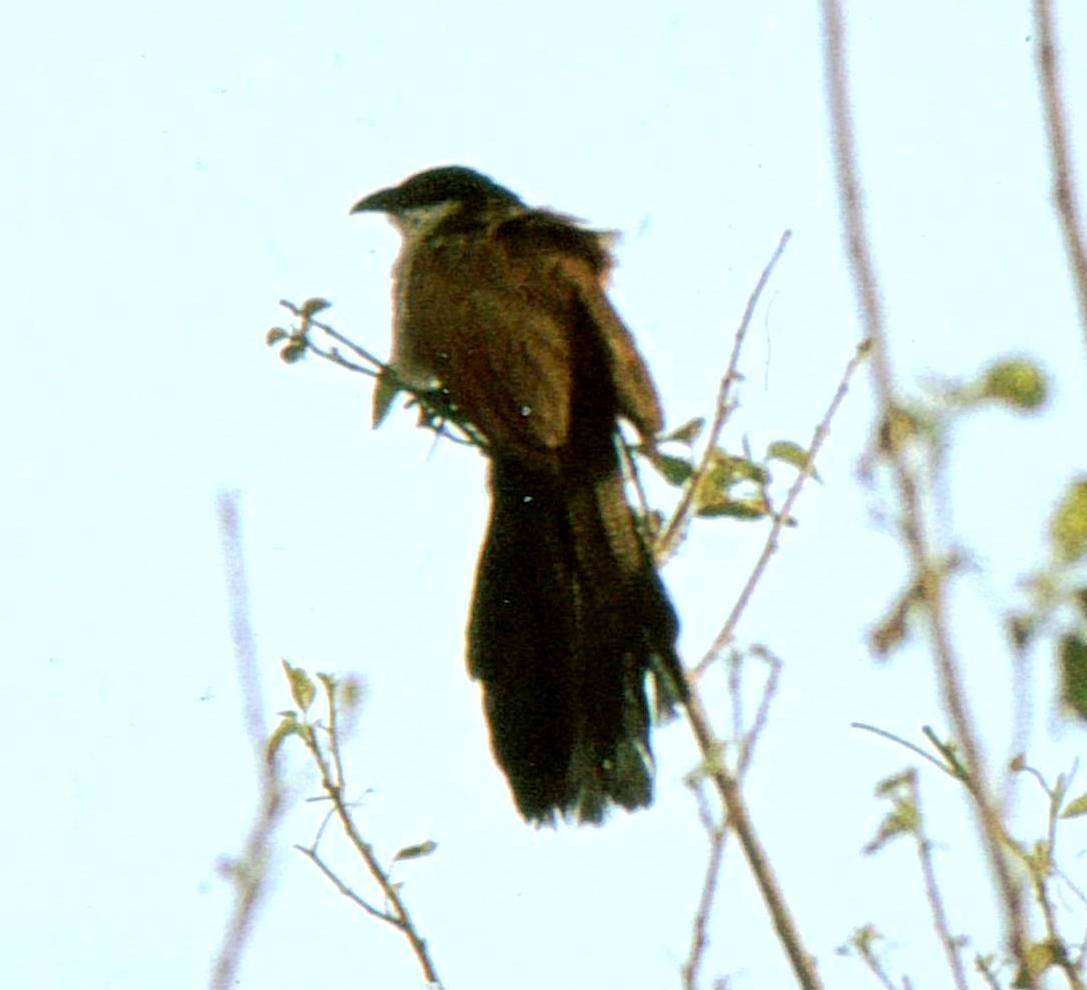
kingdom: Animalia
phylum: Chordata
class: Aves
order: Cuculiformes
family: Cuculidae
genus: Centropus
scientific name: Centropus superciliosus
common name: White-browed coucal
